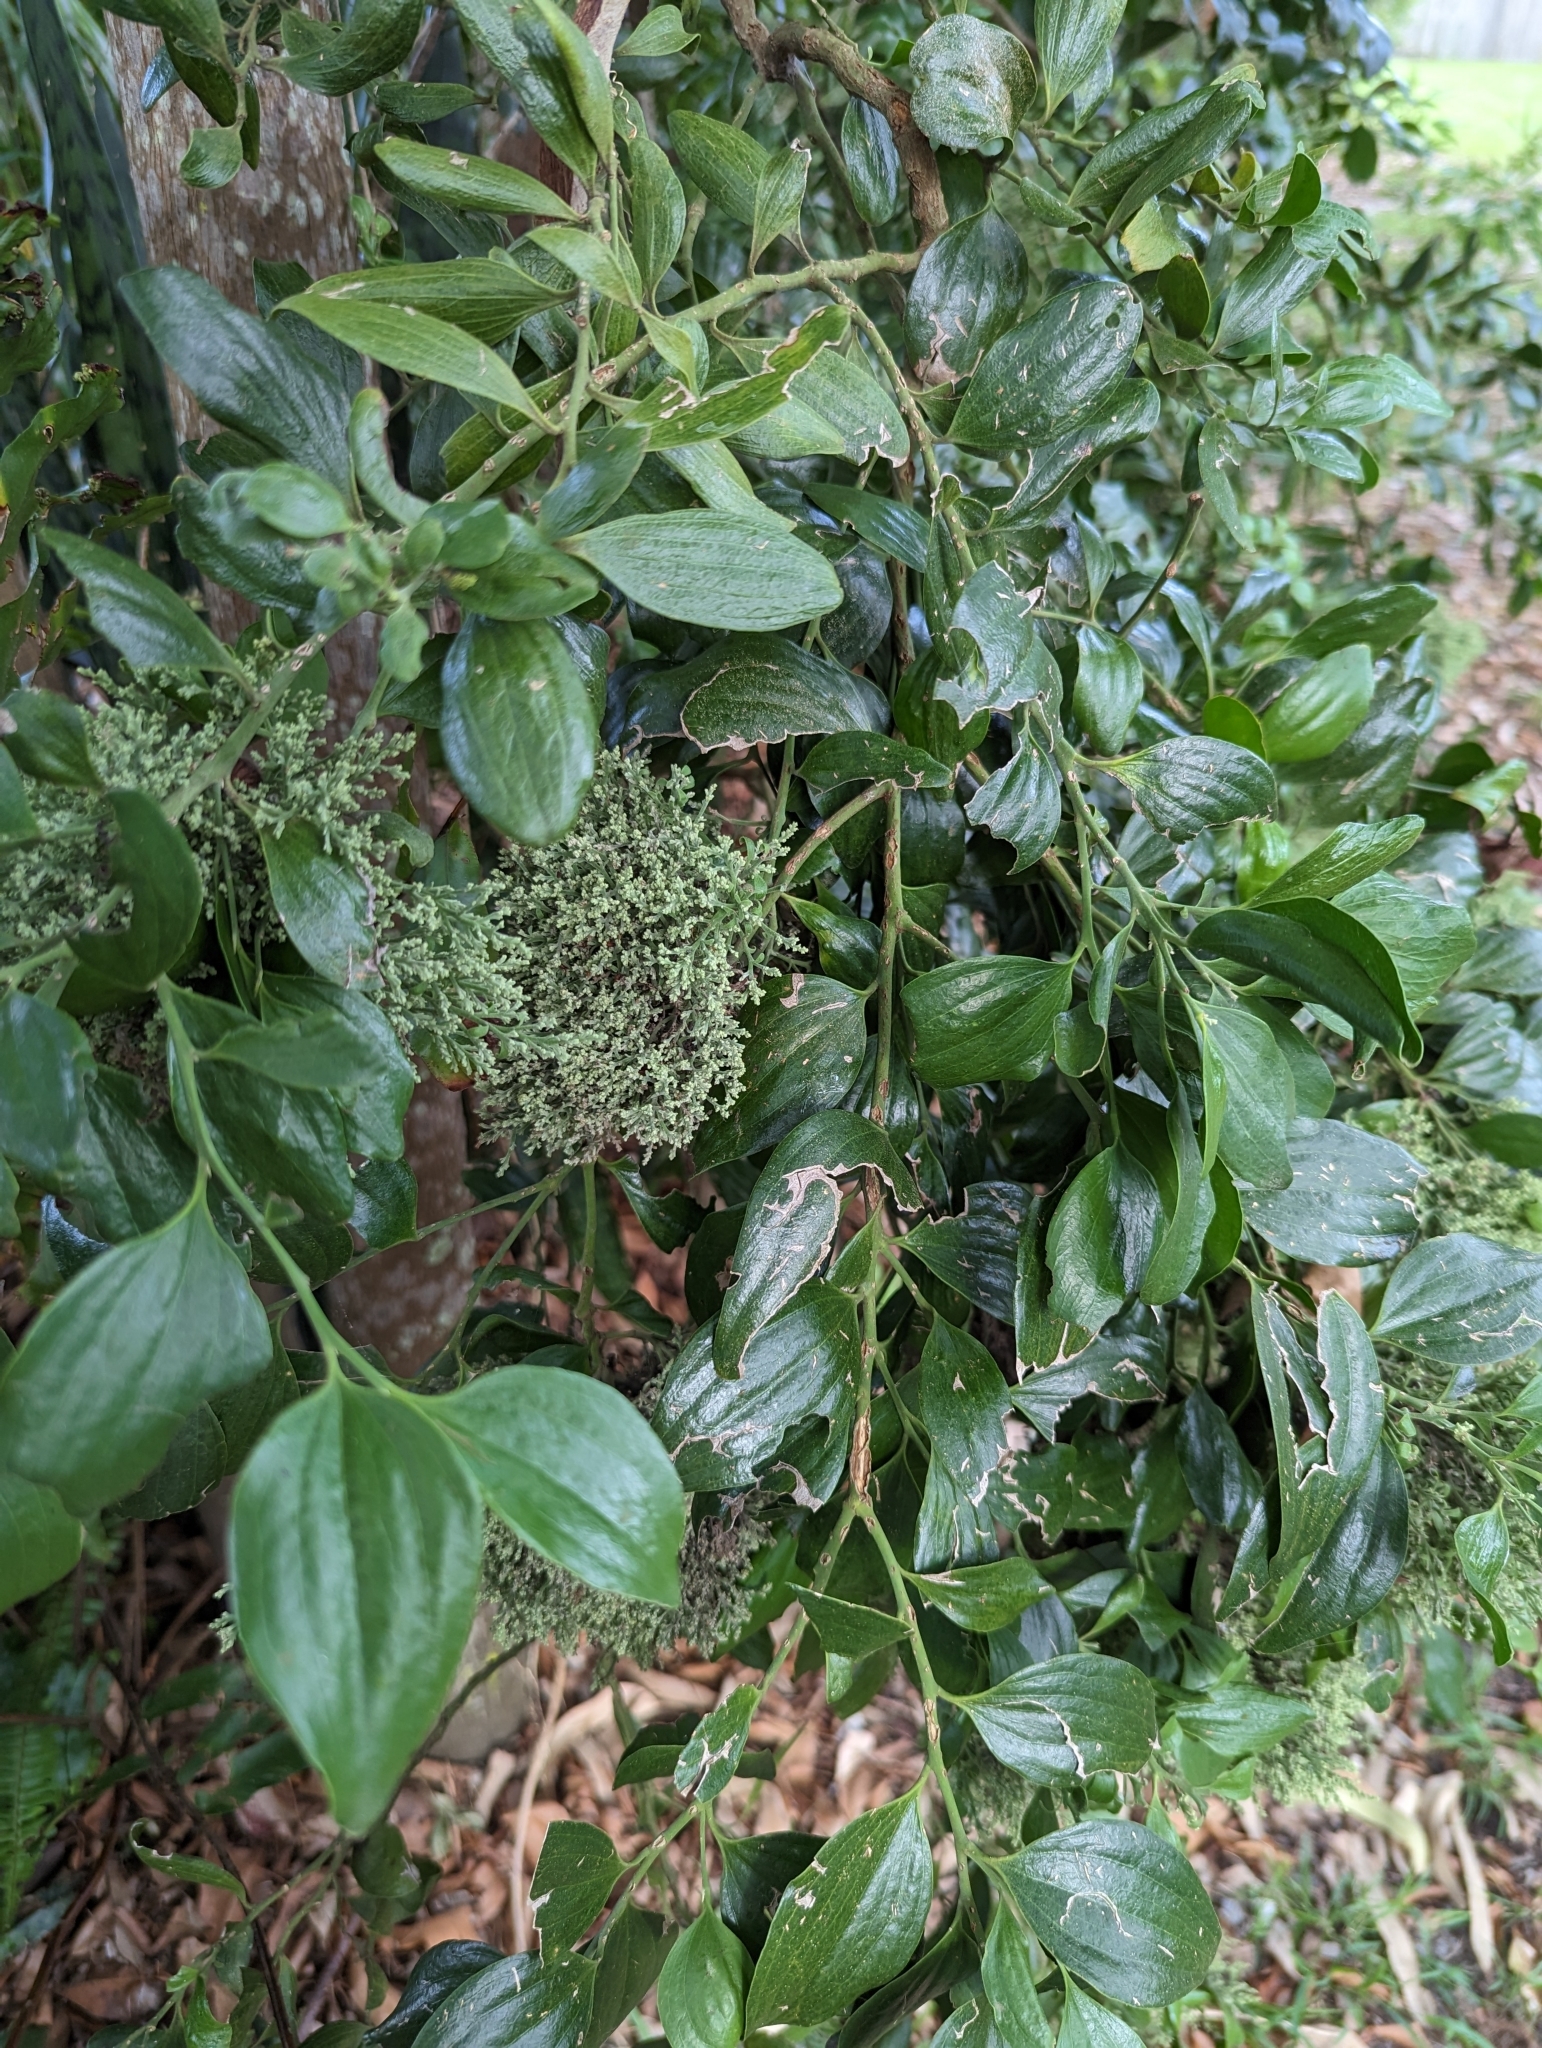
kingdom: Plantae
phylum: Tracheophyta
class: Magnoliopsida
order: Santalales
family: Santalaceae
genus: Exocarpos
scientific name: Exocarpos latifolius
